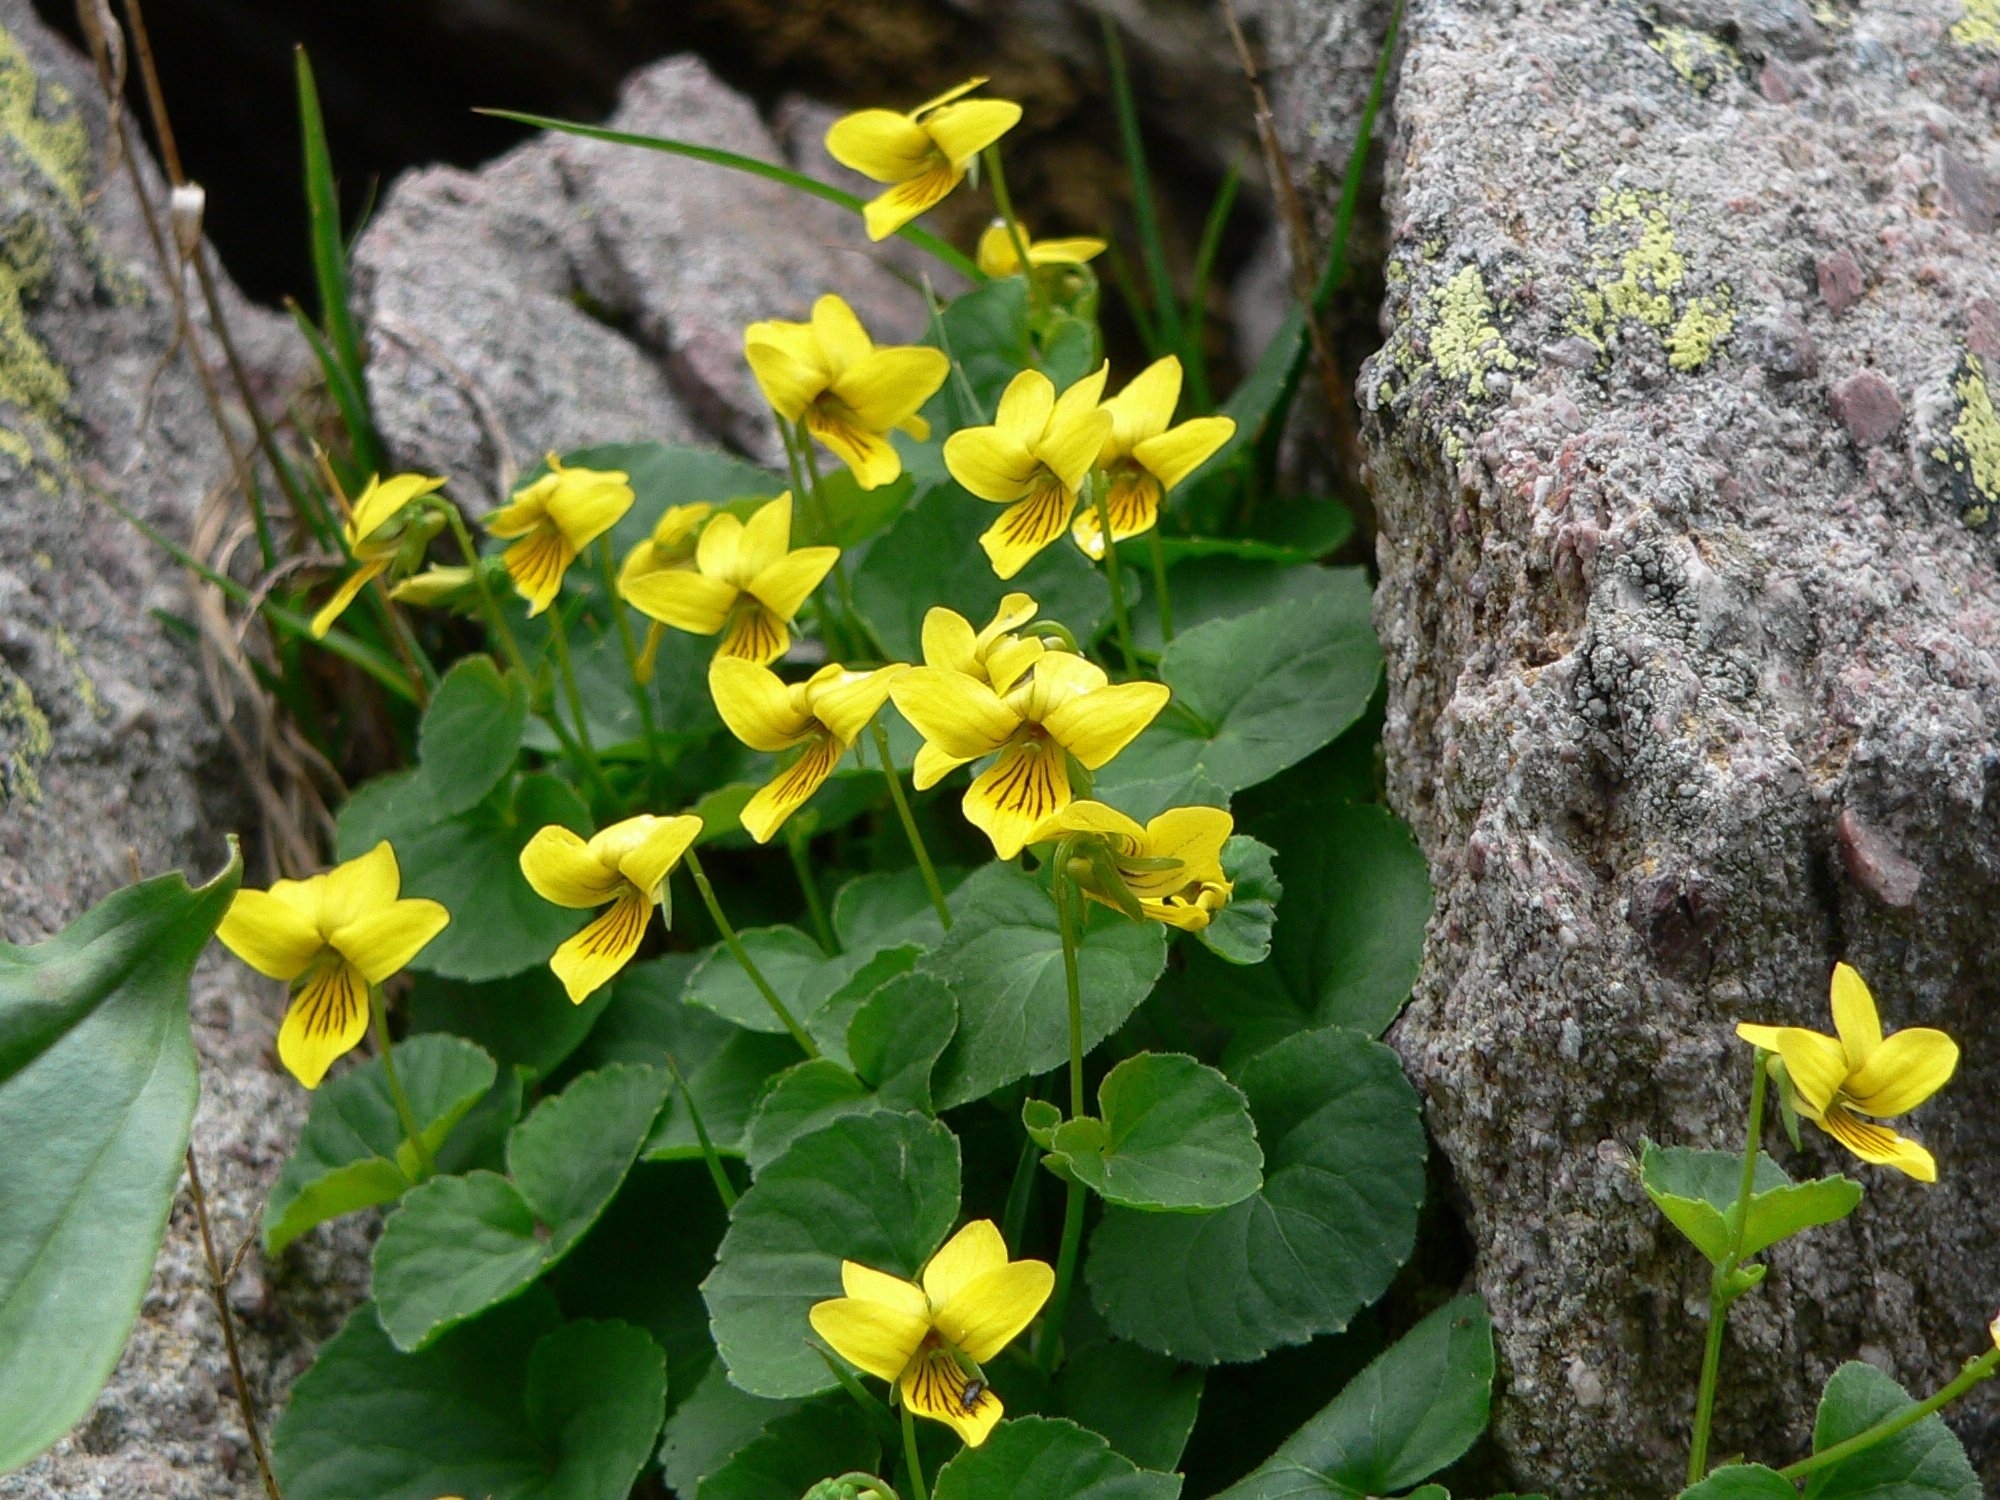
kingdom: Plantae
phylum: Tracheophyta
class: Magnoliopsida
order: Malpighiales
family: Violaceae
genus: Viola
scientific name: Viola biflora
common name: Alpine yellow violet
